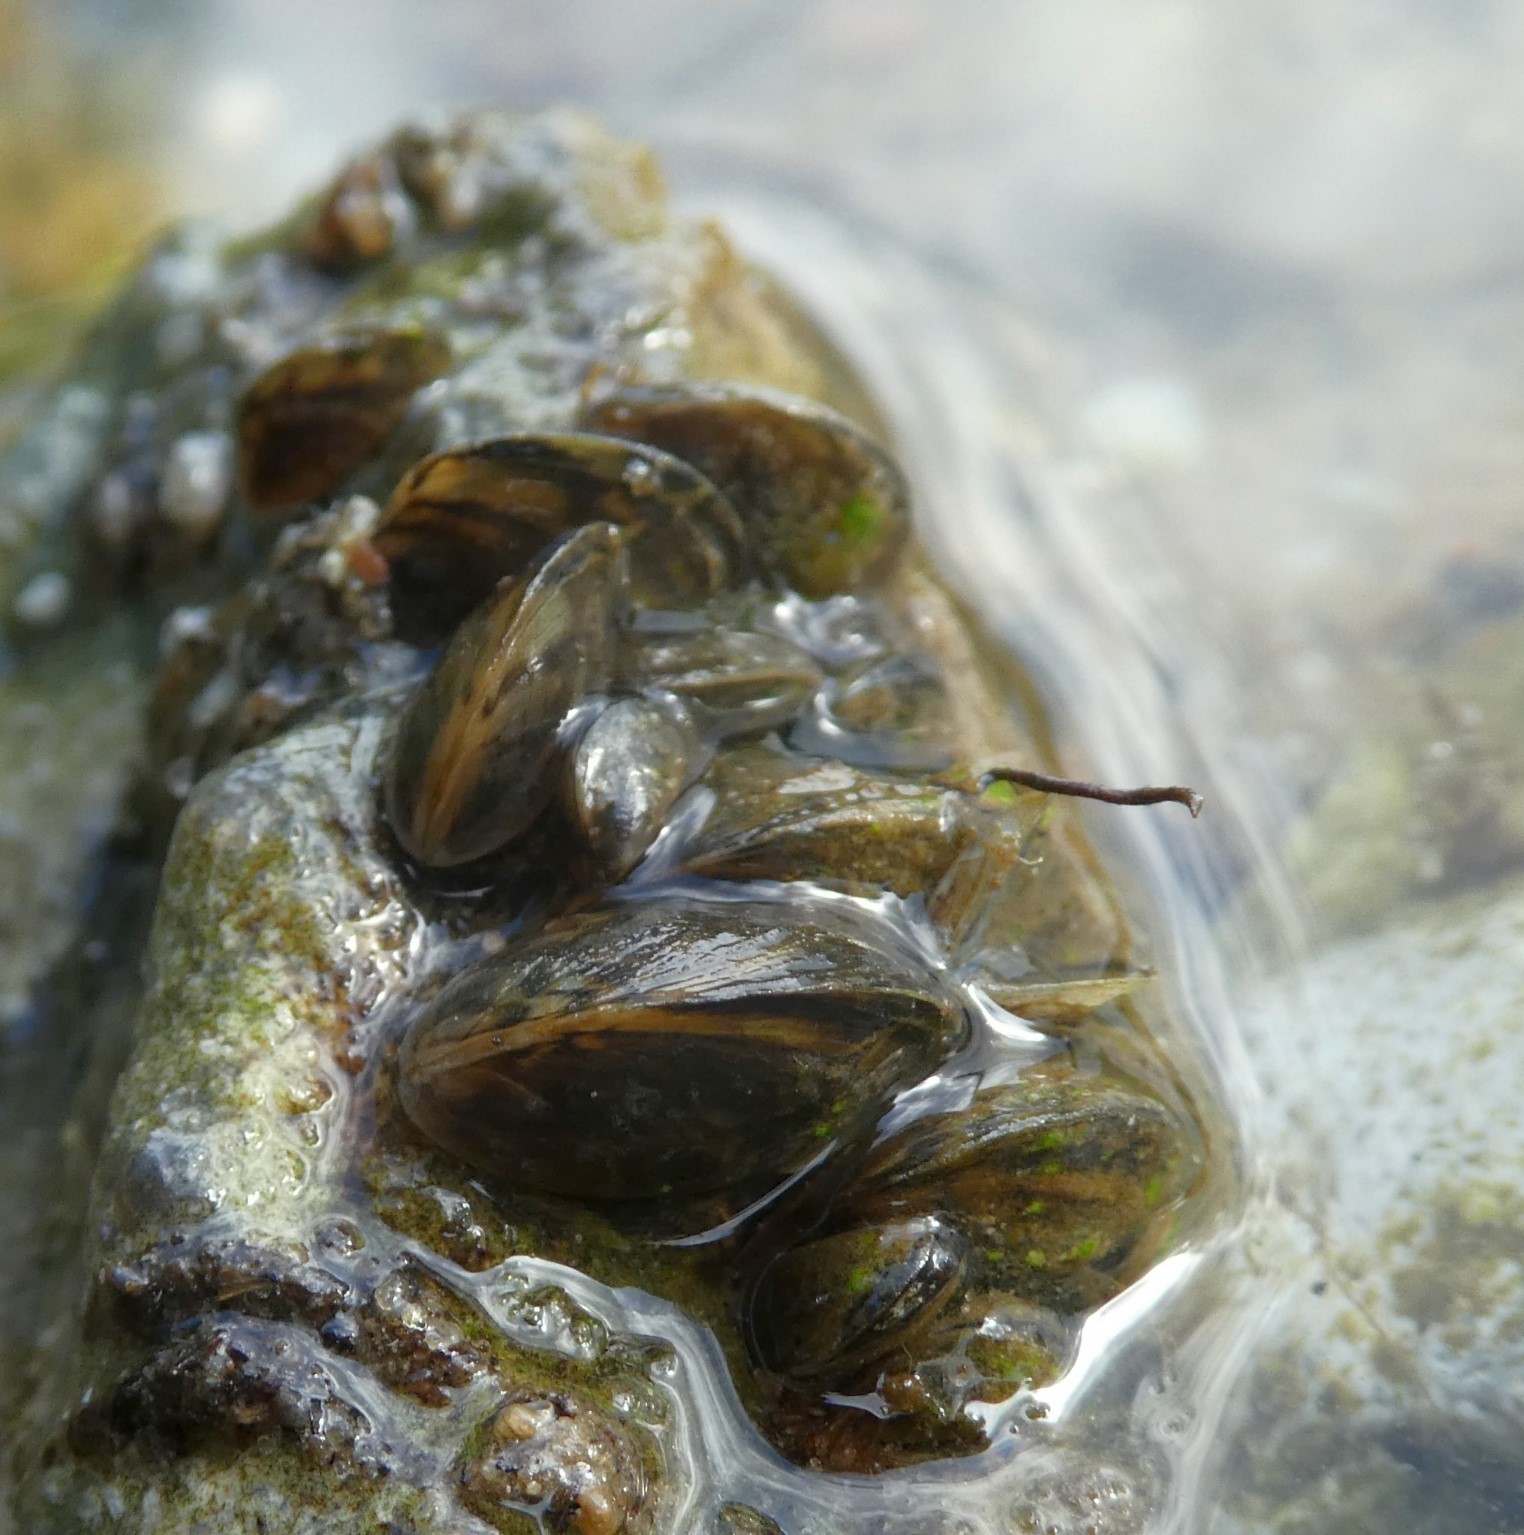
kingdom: Animalia
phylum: Mollusca
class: Bivalvia
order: Myida
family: Dreissenidae
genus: Dreissena
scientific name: Dreissena polymorpha
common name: Zebra mussel
